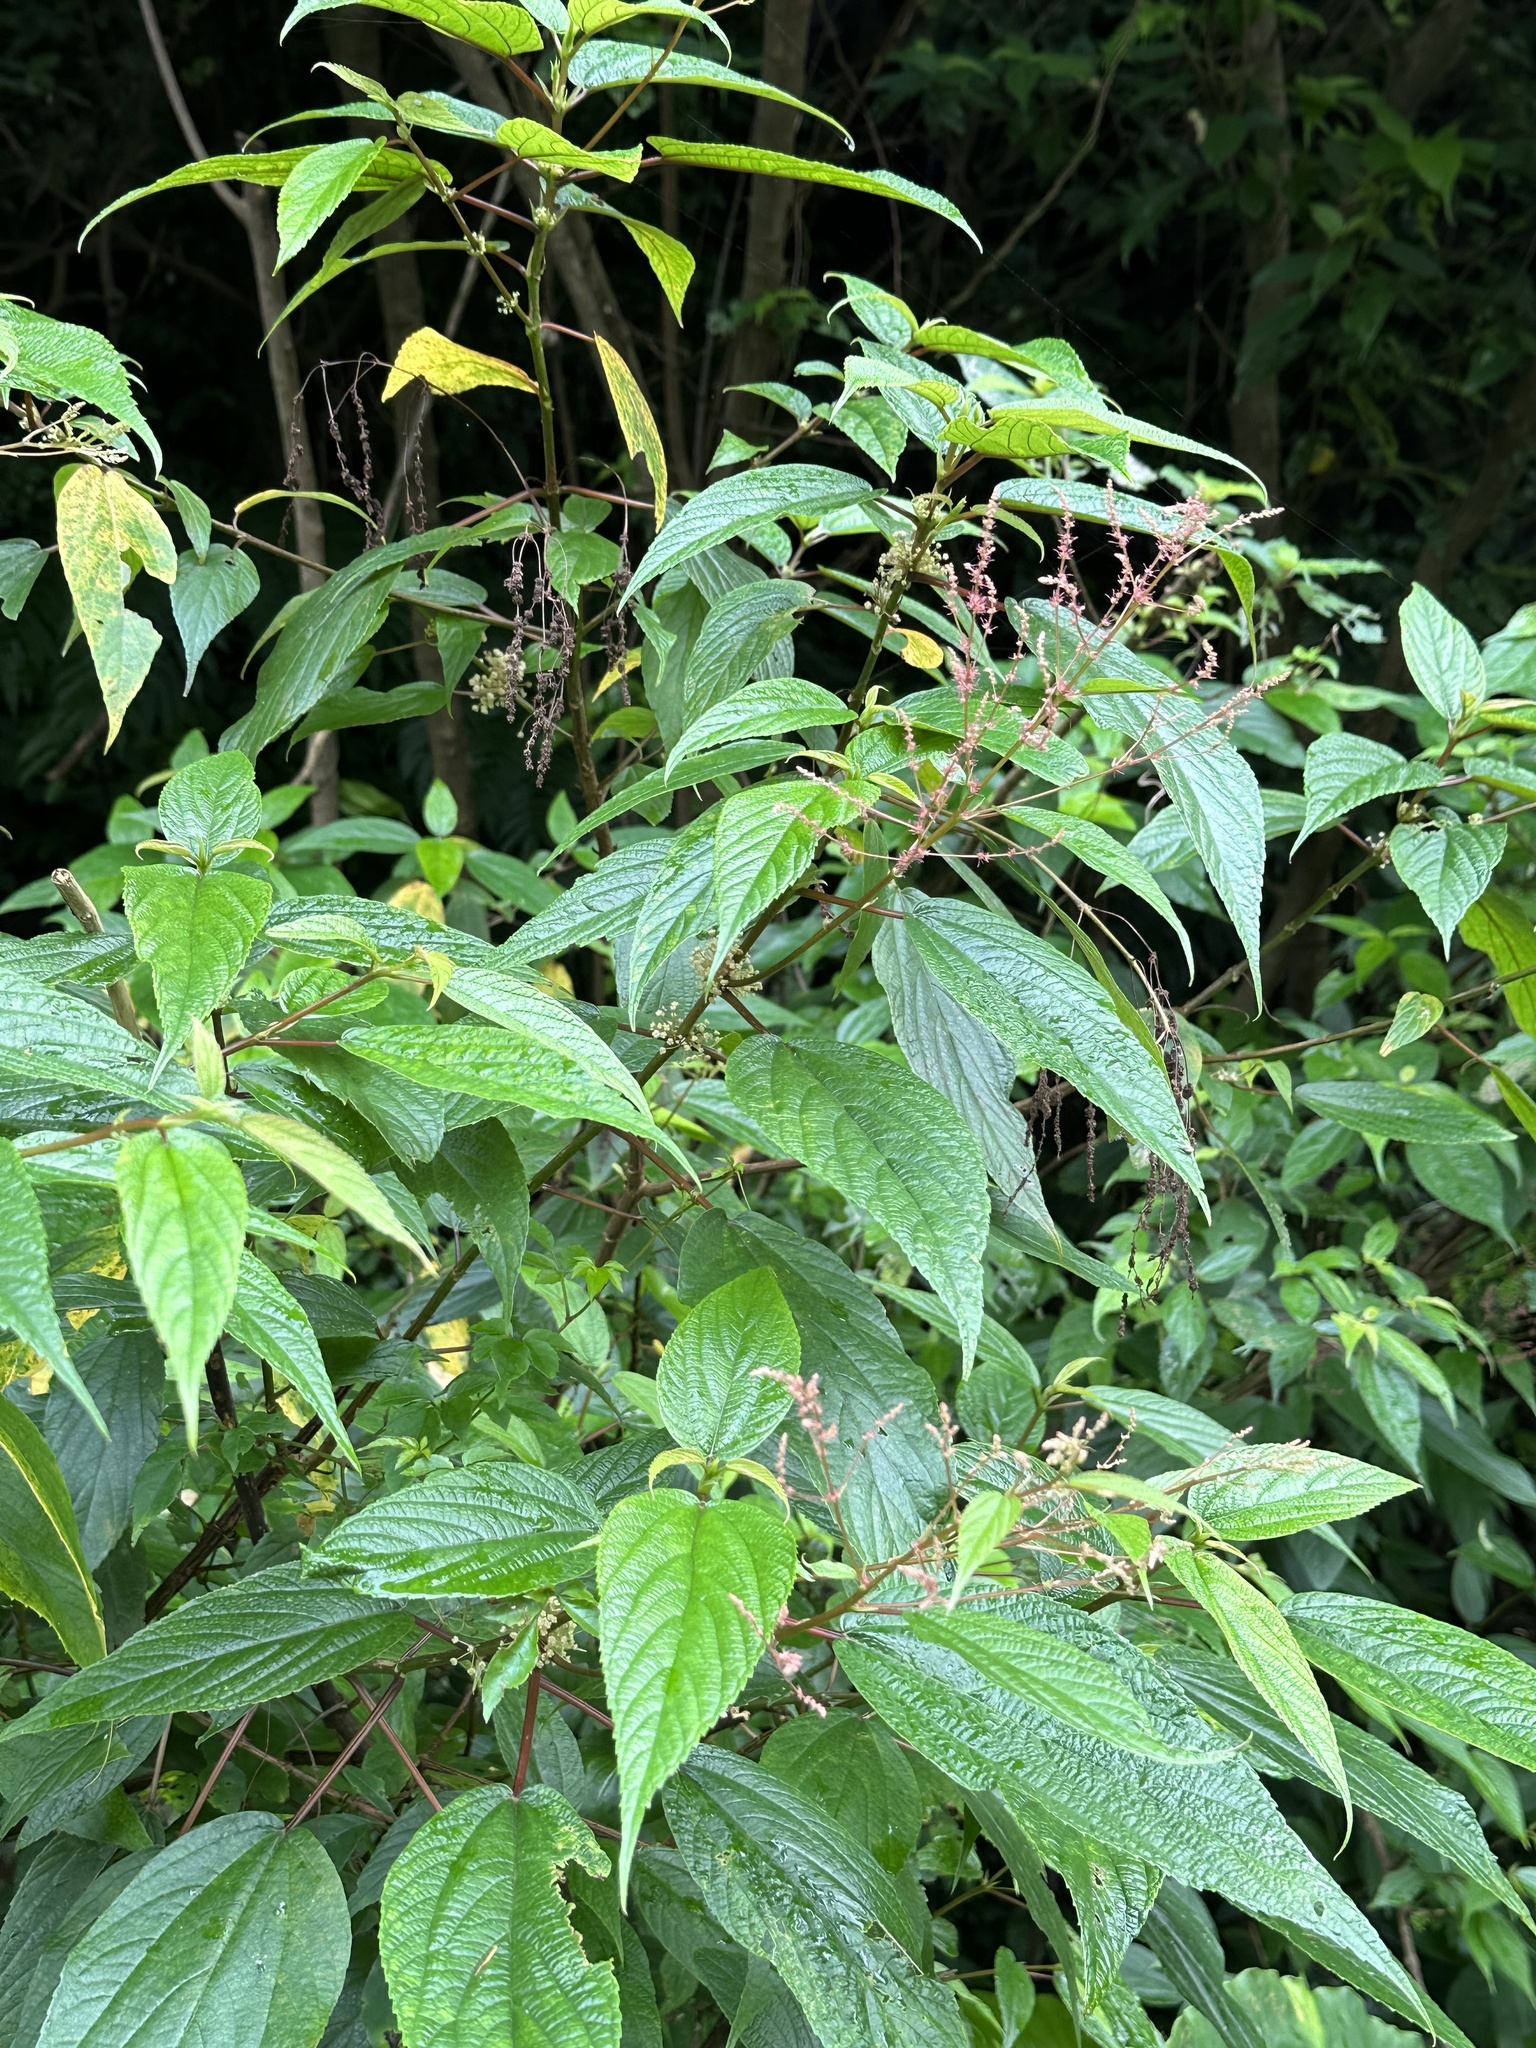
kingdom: Plantae
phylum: Tracheophyta
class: Magnoliopsida
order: Rosales
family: Urticaceae
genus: Boehmeria
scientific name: Boehmeria zollingeriana
